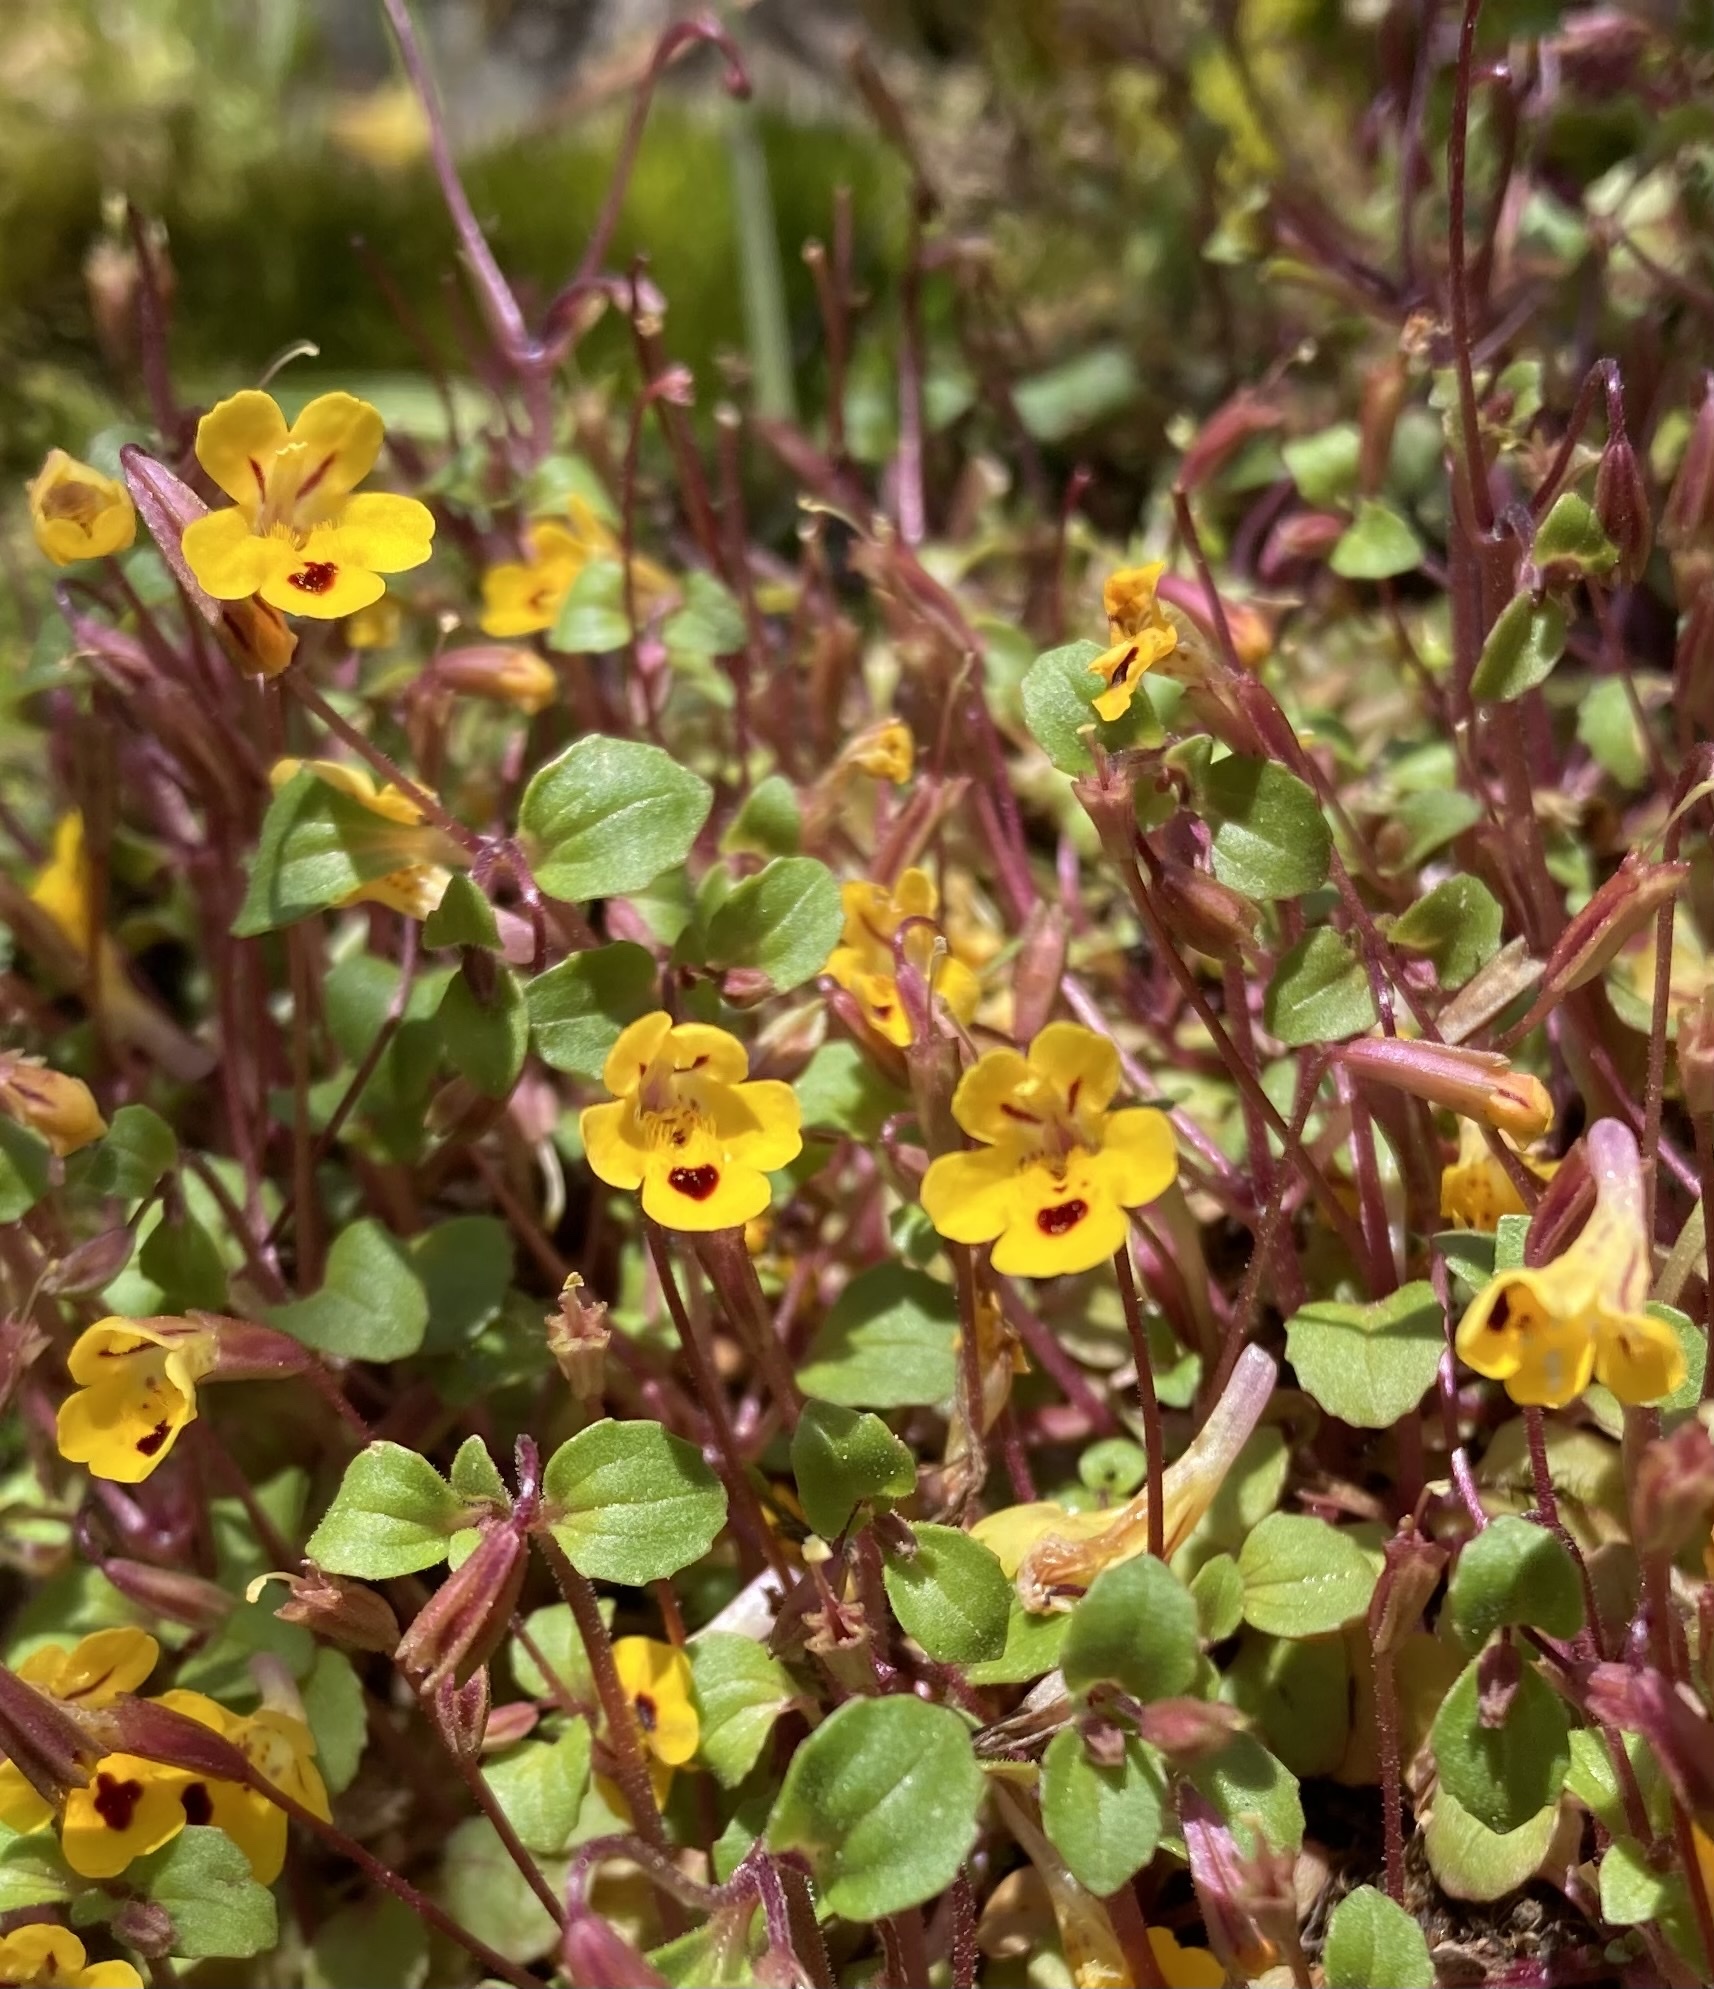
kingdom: Plantae
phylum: Tracheophyta
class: Magnoliopsida
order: Lamiales
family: Phrymaceae
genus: Erythranthe
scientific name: Erythranthe alsinoides
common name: Chickweed monkeyflower
